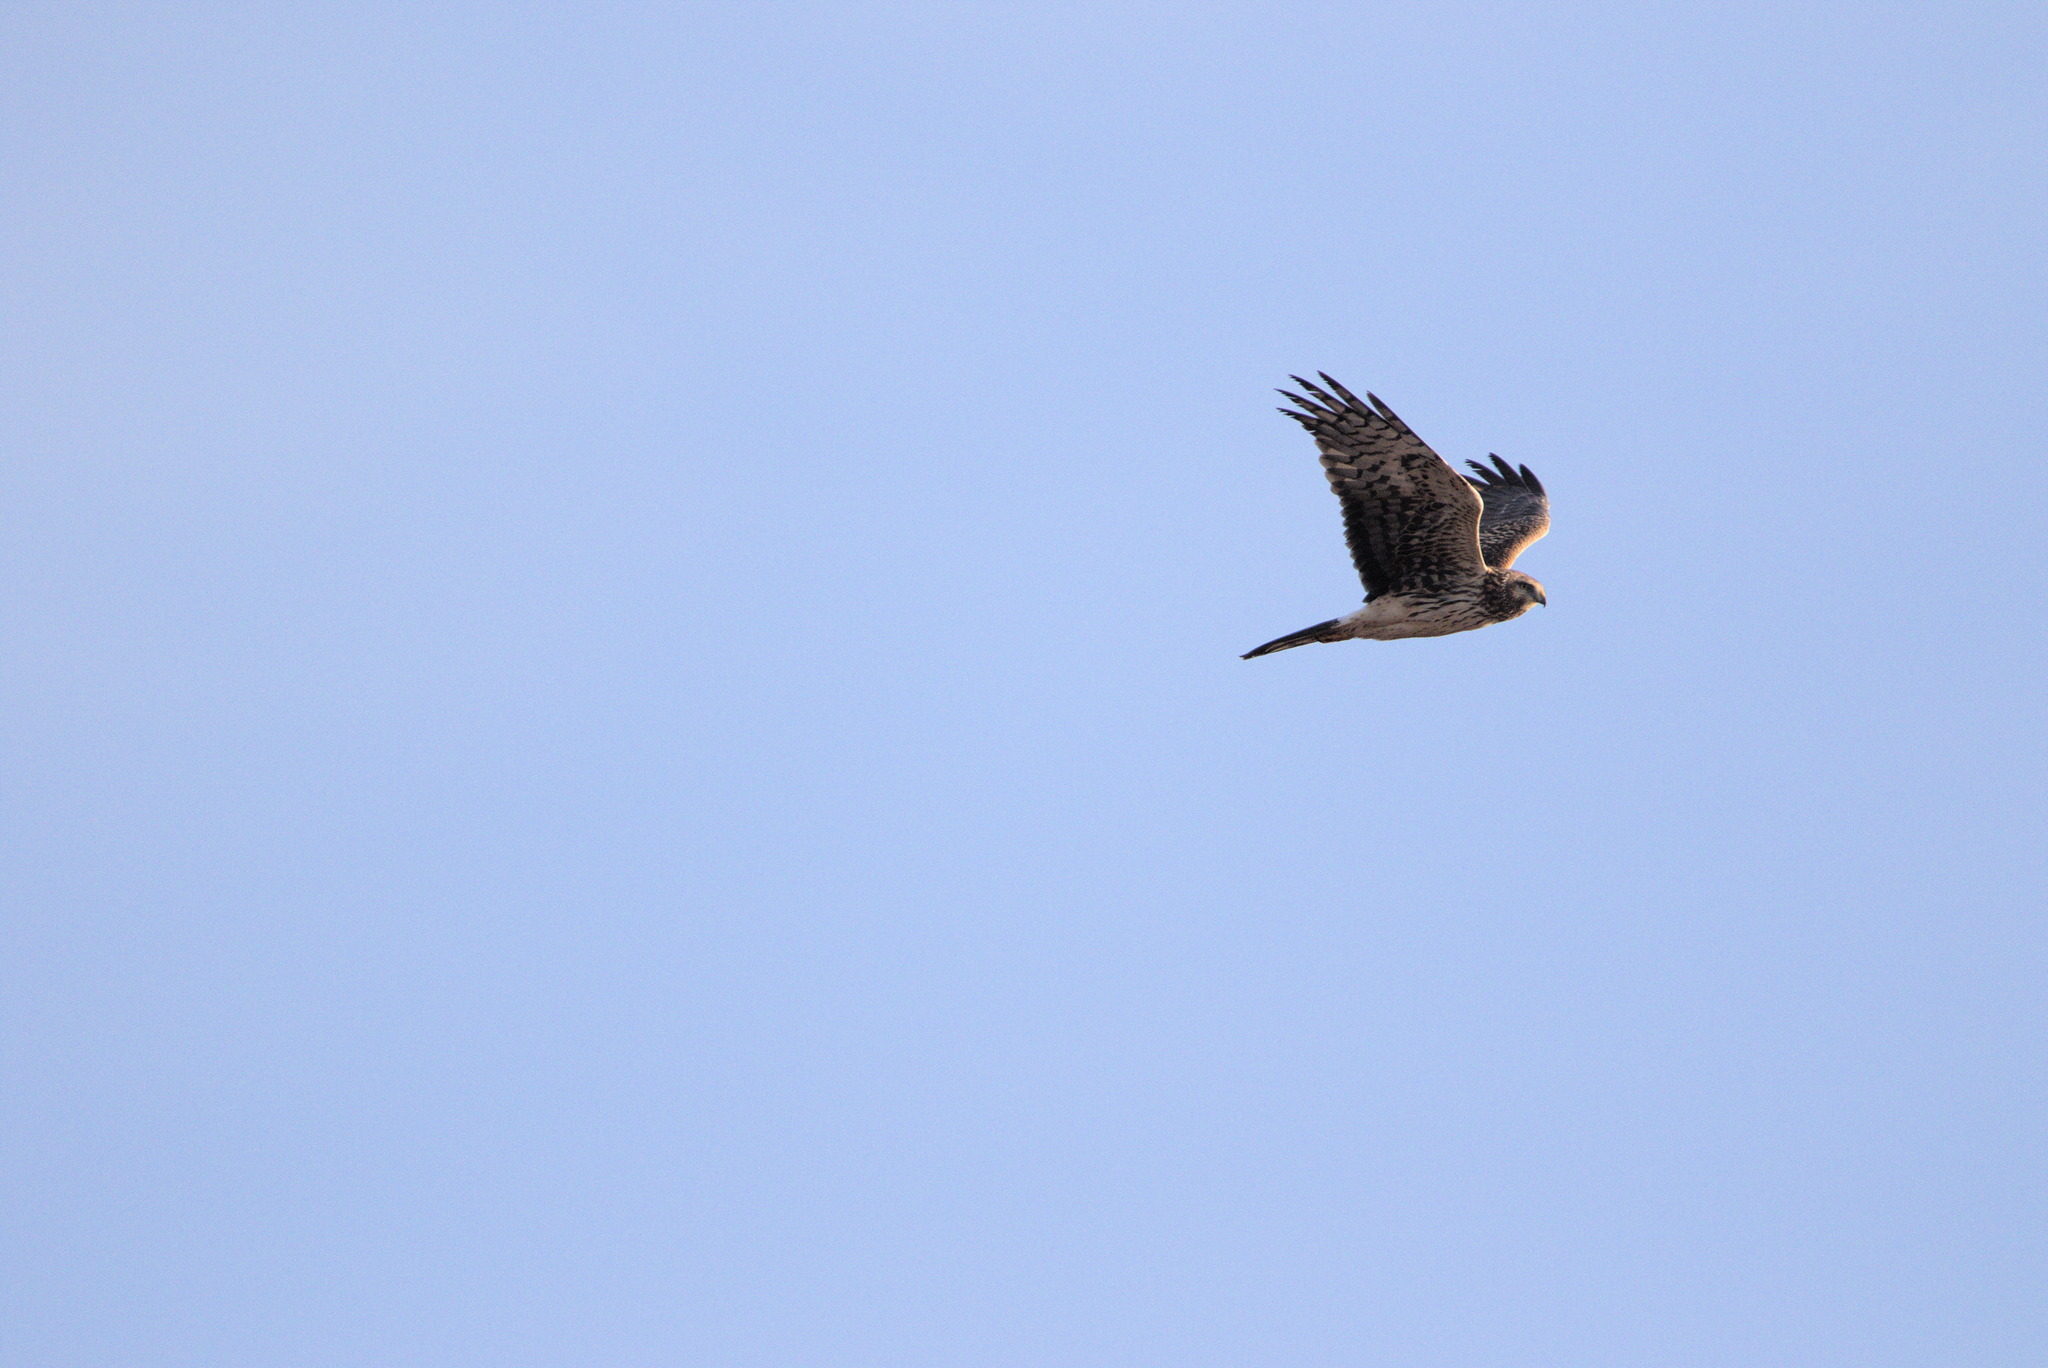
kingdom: Animalia
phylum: Chordata
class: Aves
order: Accipitriformes
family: Accipitridae
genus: Circus
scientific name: Circus cyaneus
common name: Hen harrier
